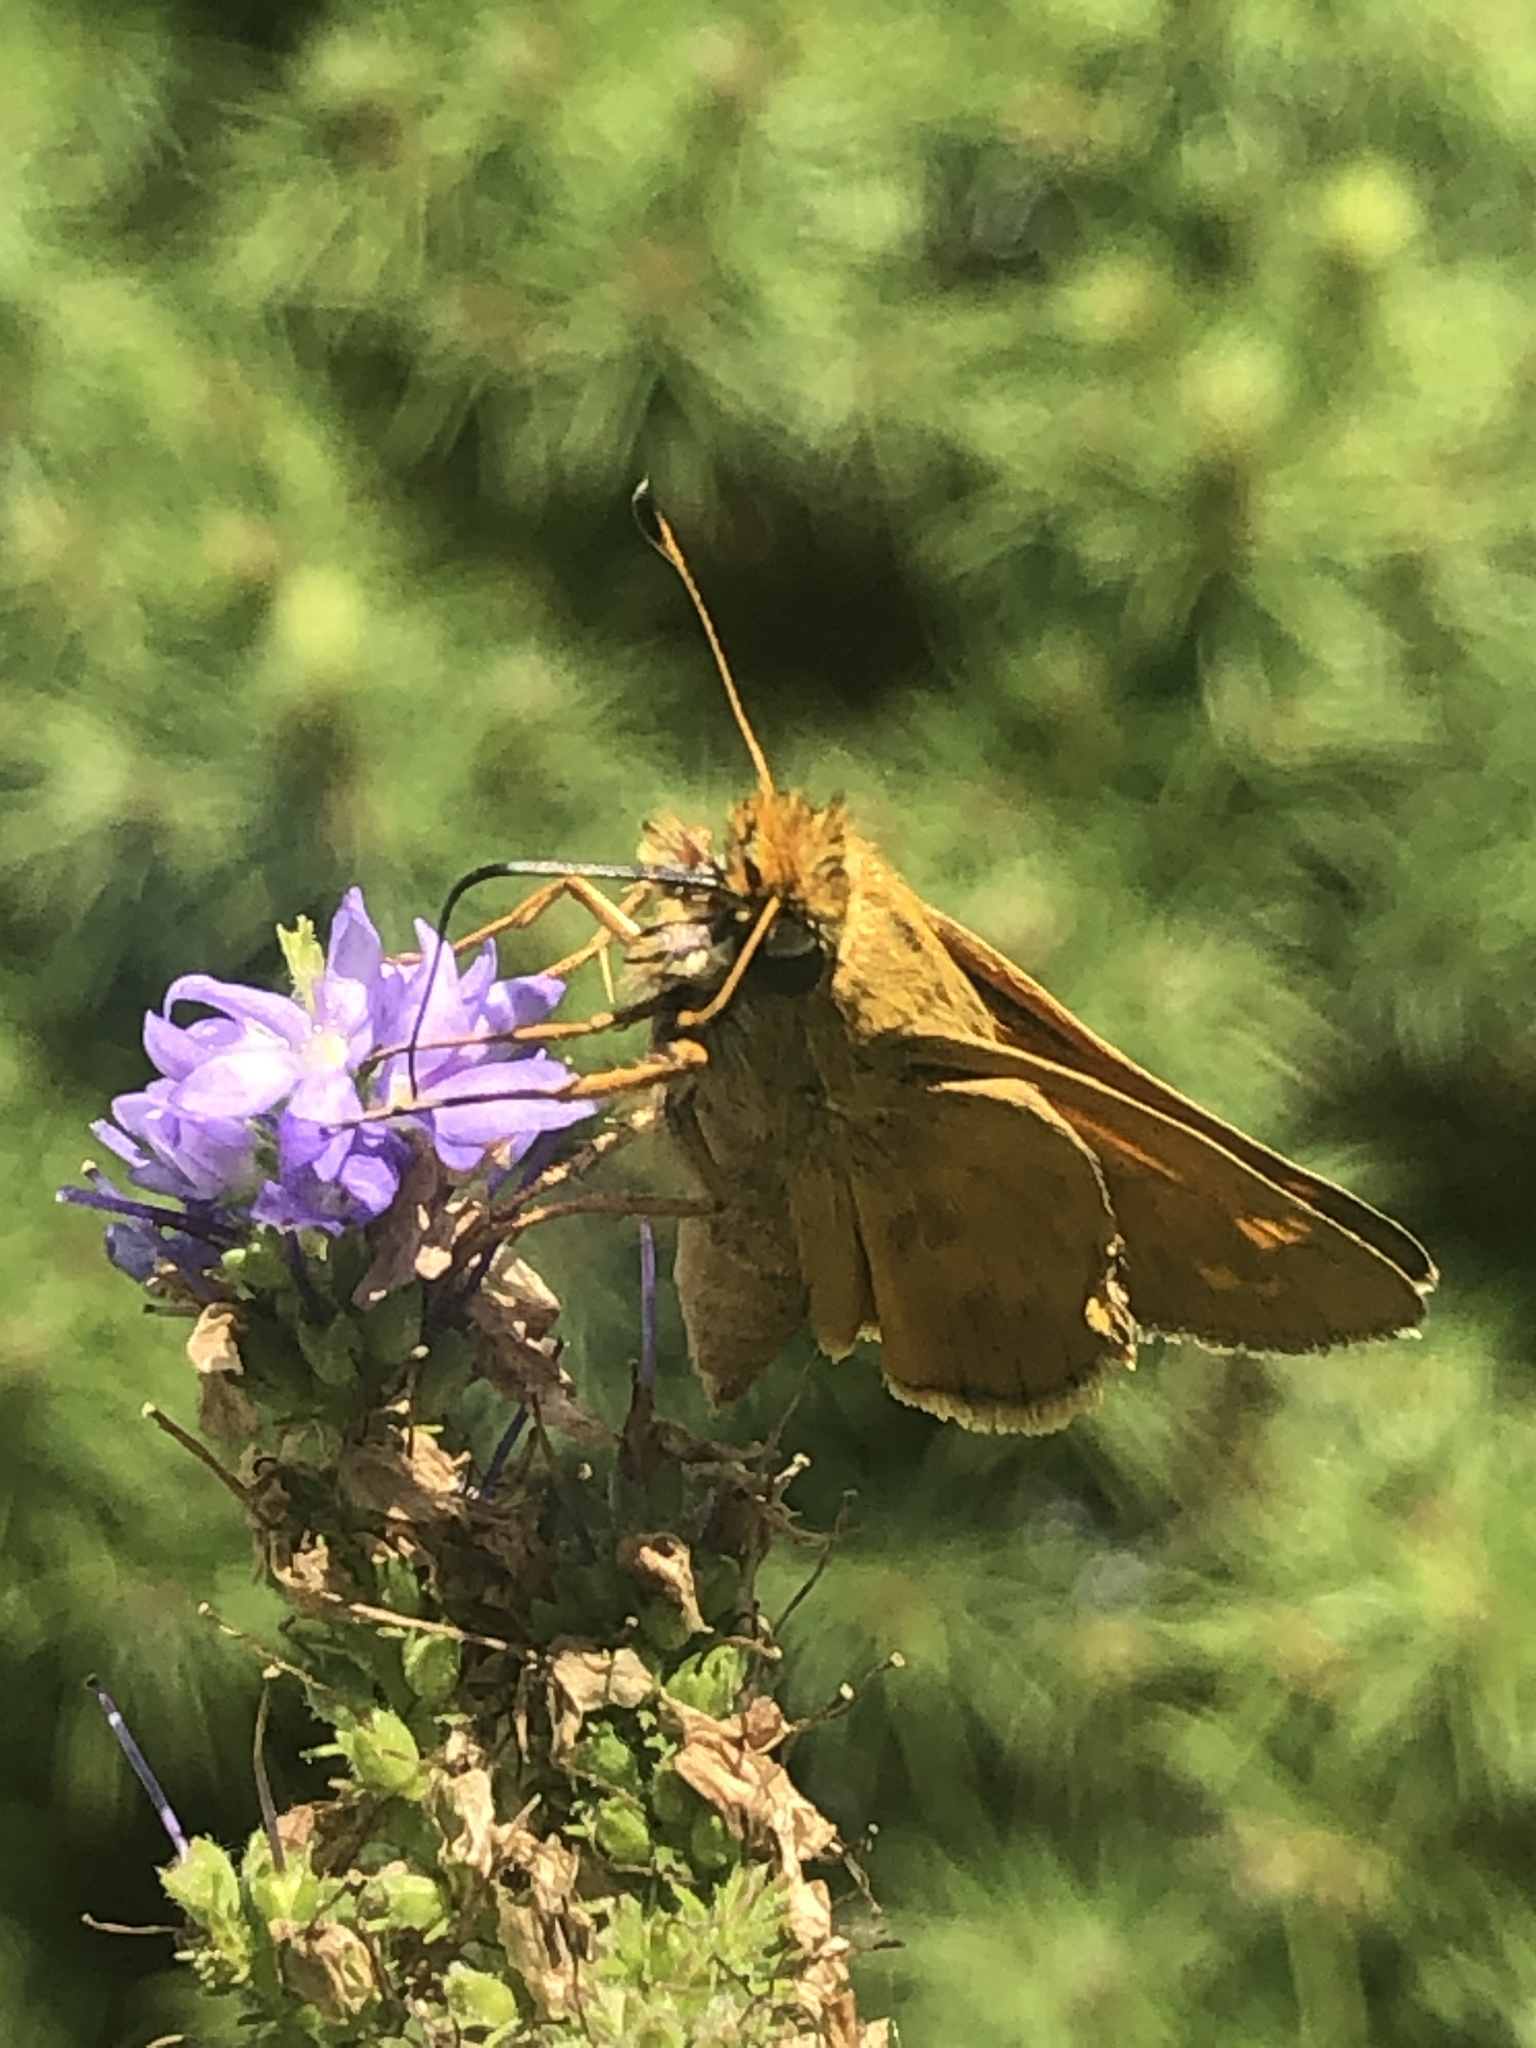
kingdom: Animalia
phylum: Arthropoda
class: Insecta
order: Lepidoptera
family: Hesperiidae
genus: Atalopedes
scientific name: Atalopedes
